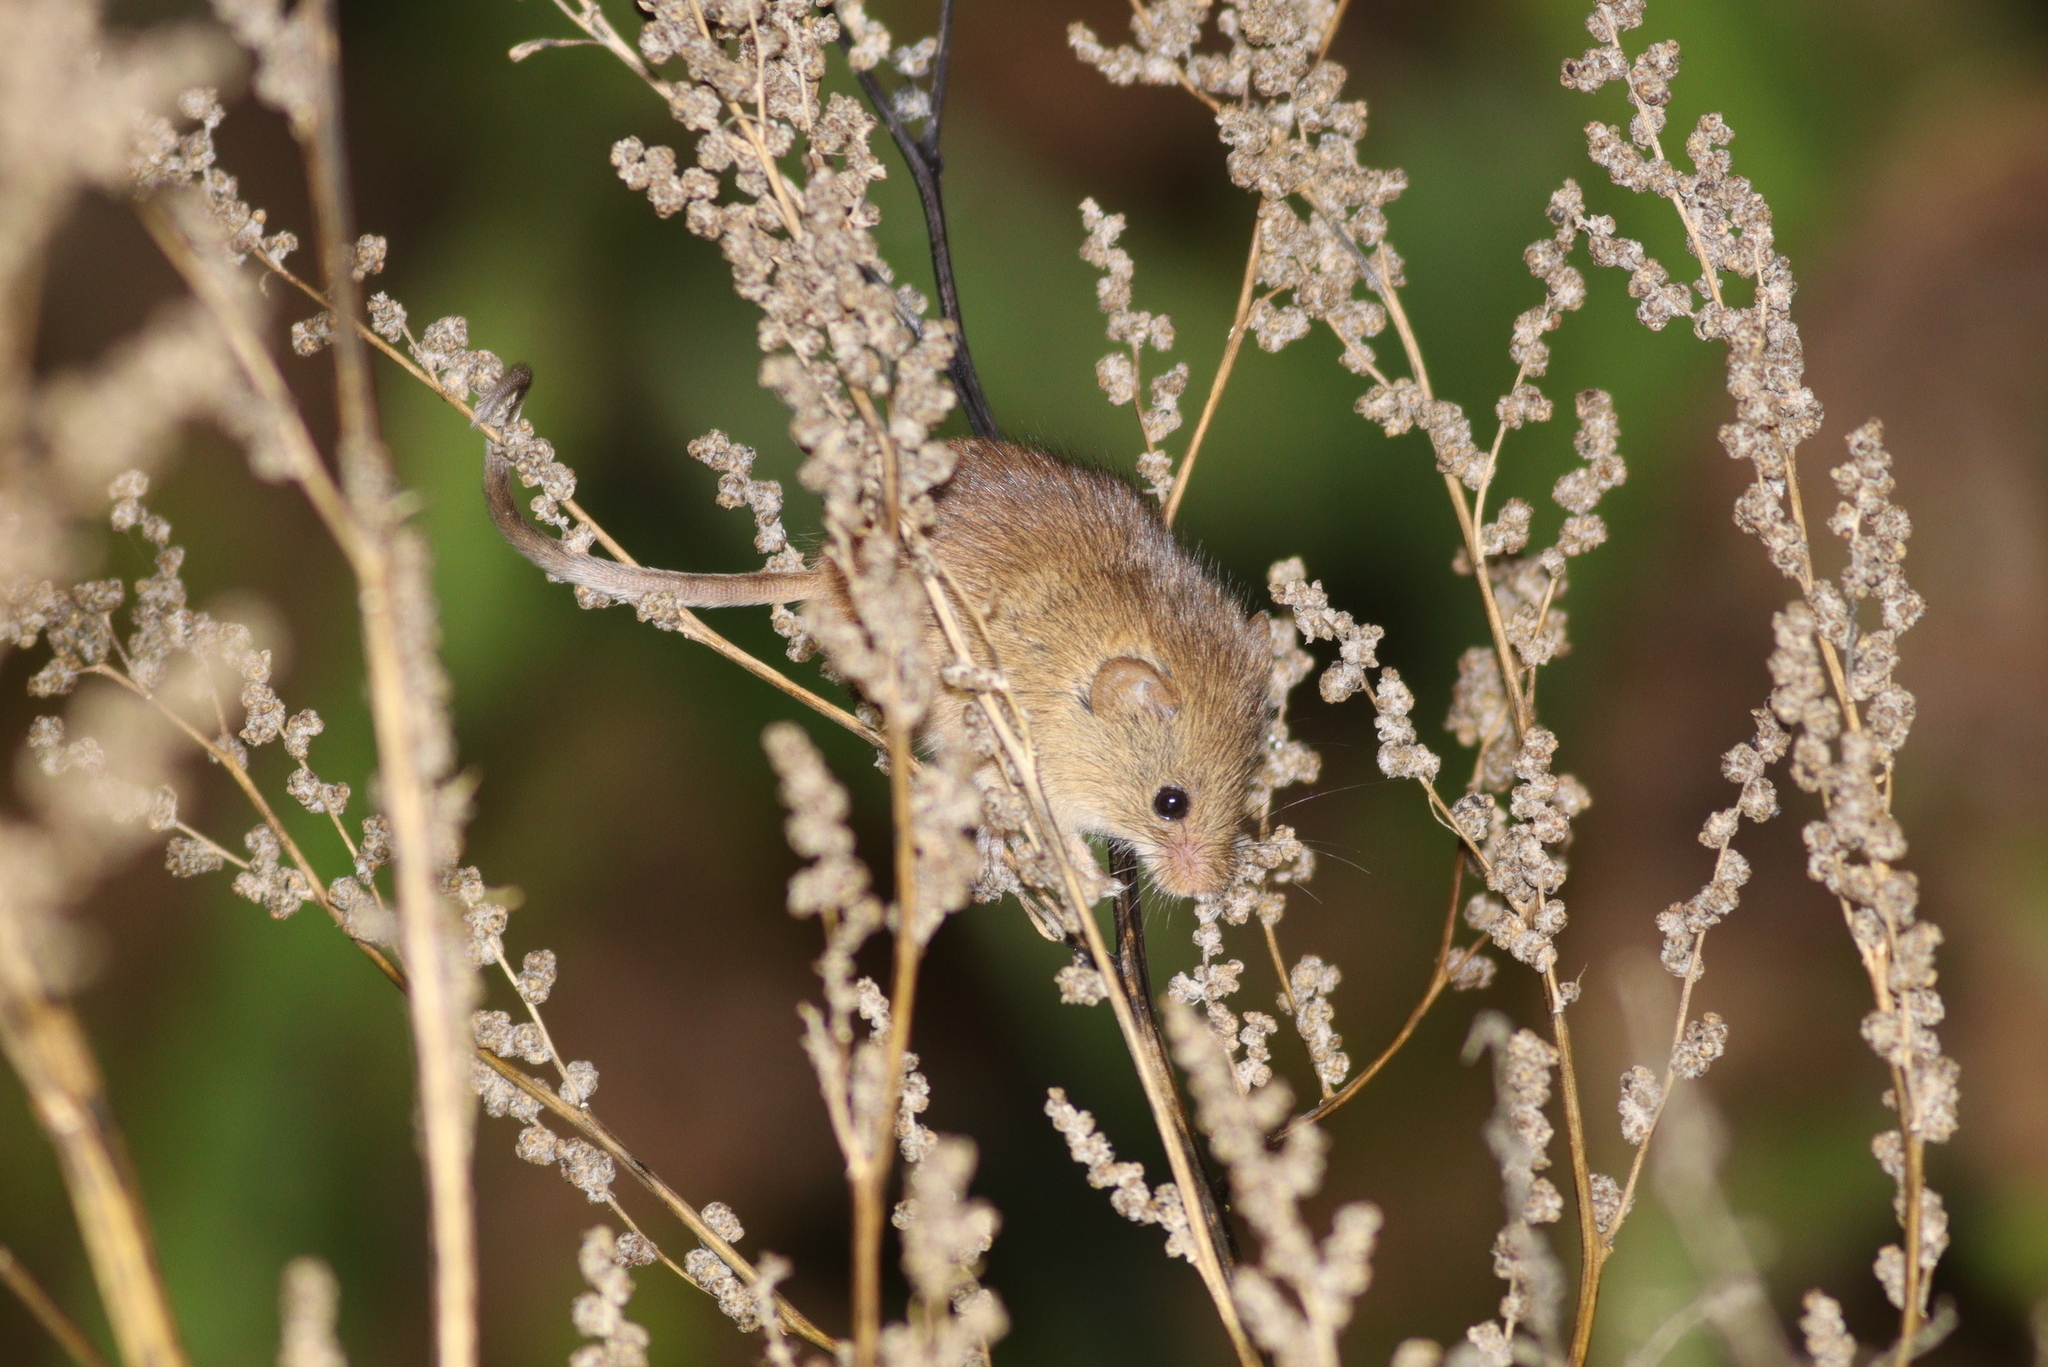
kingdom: Animalia
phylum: Chordata
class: Mammalia
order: Rodentia
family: Muridae
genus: Micromys
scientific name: Micromys minutus
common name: Harvest mouse
